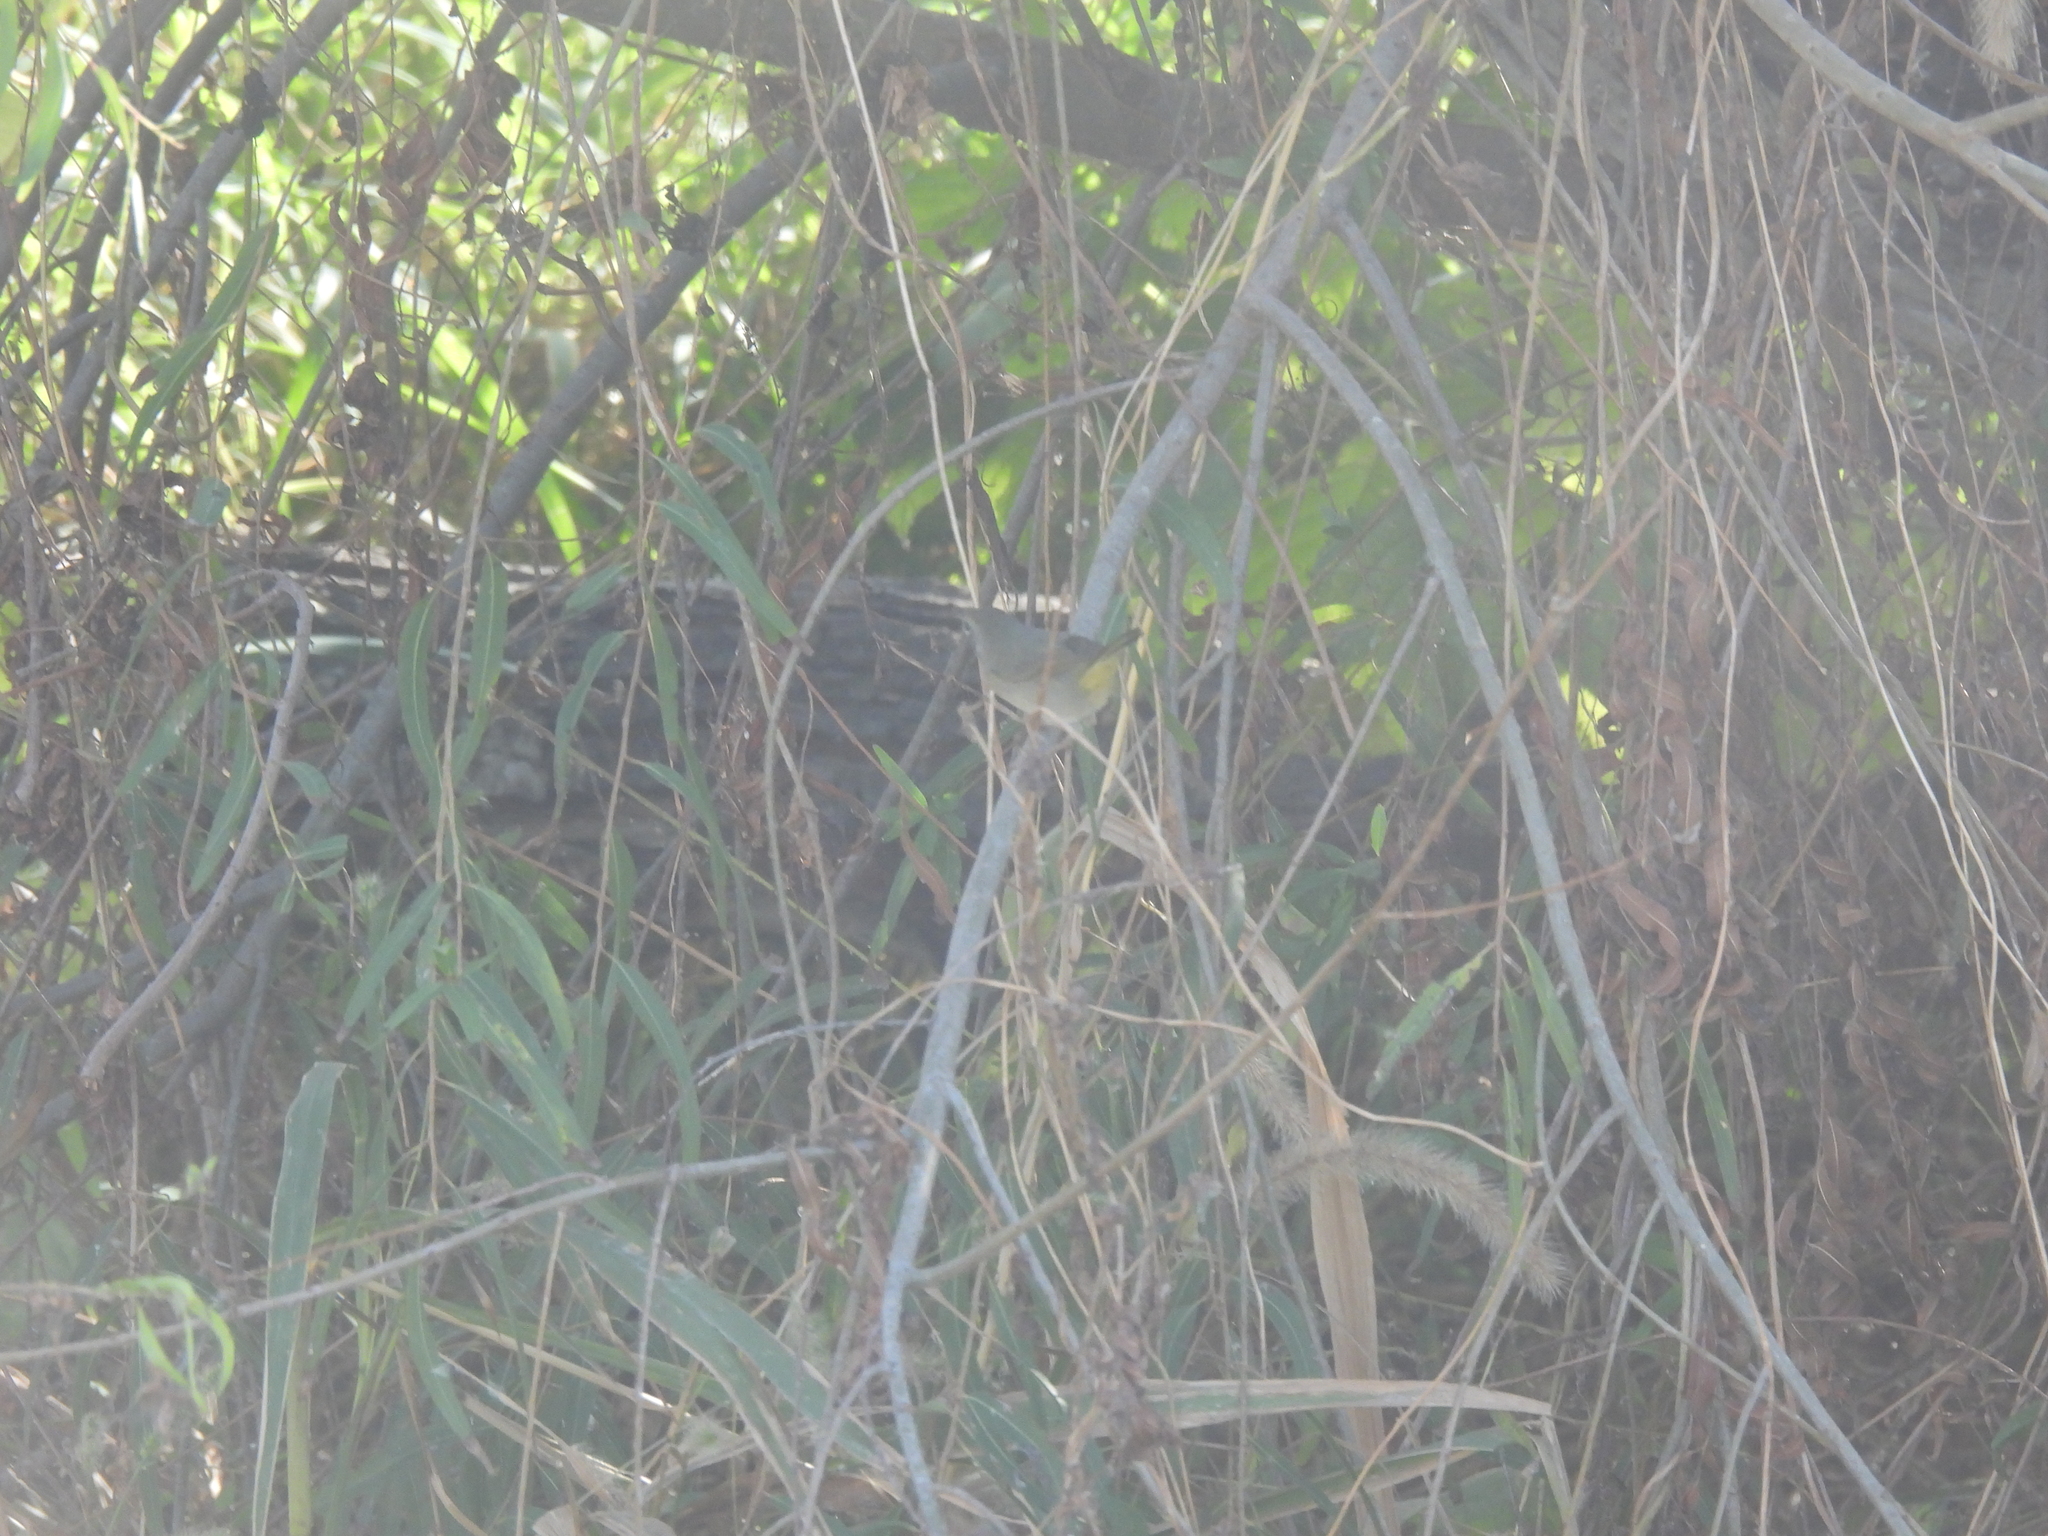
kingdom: Animalia
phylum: Chordata
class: Aves
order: Passeriformes
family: Parulidae
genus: Geothlypis
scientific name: Geothlypis trichas
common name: Common yellowthroat
